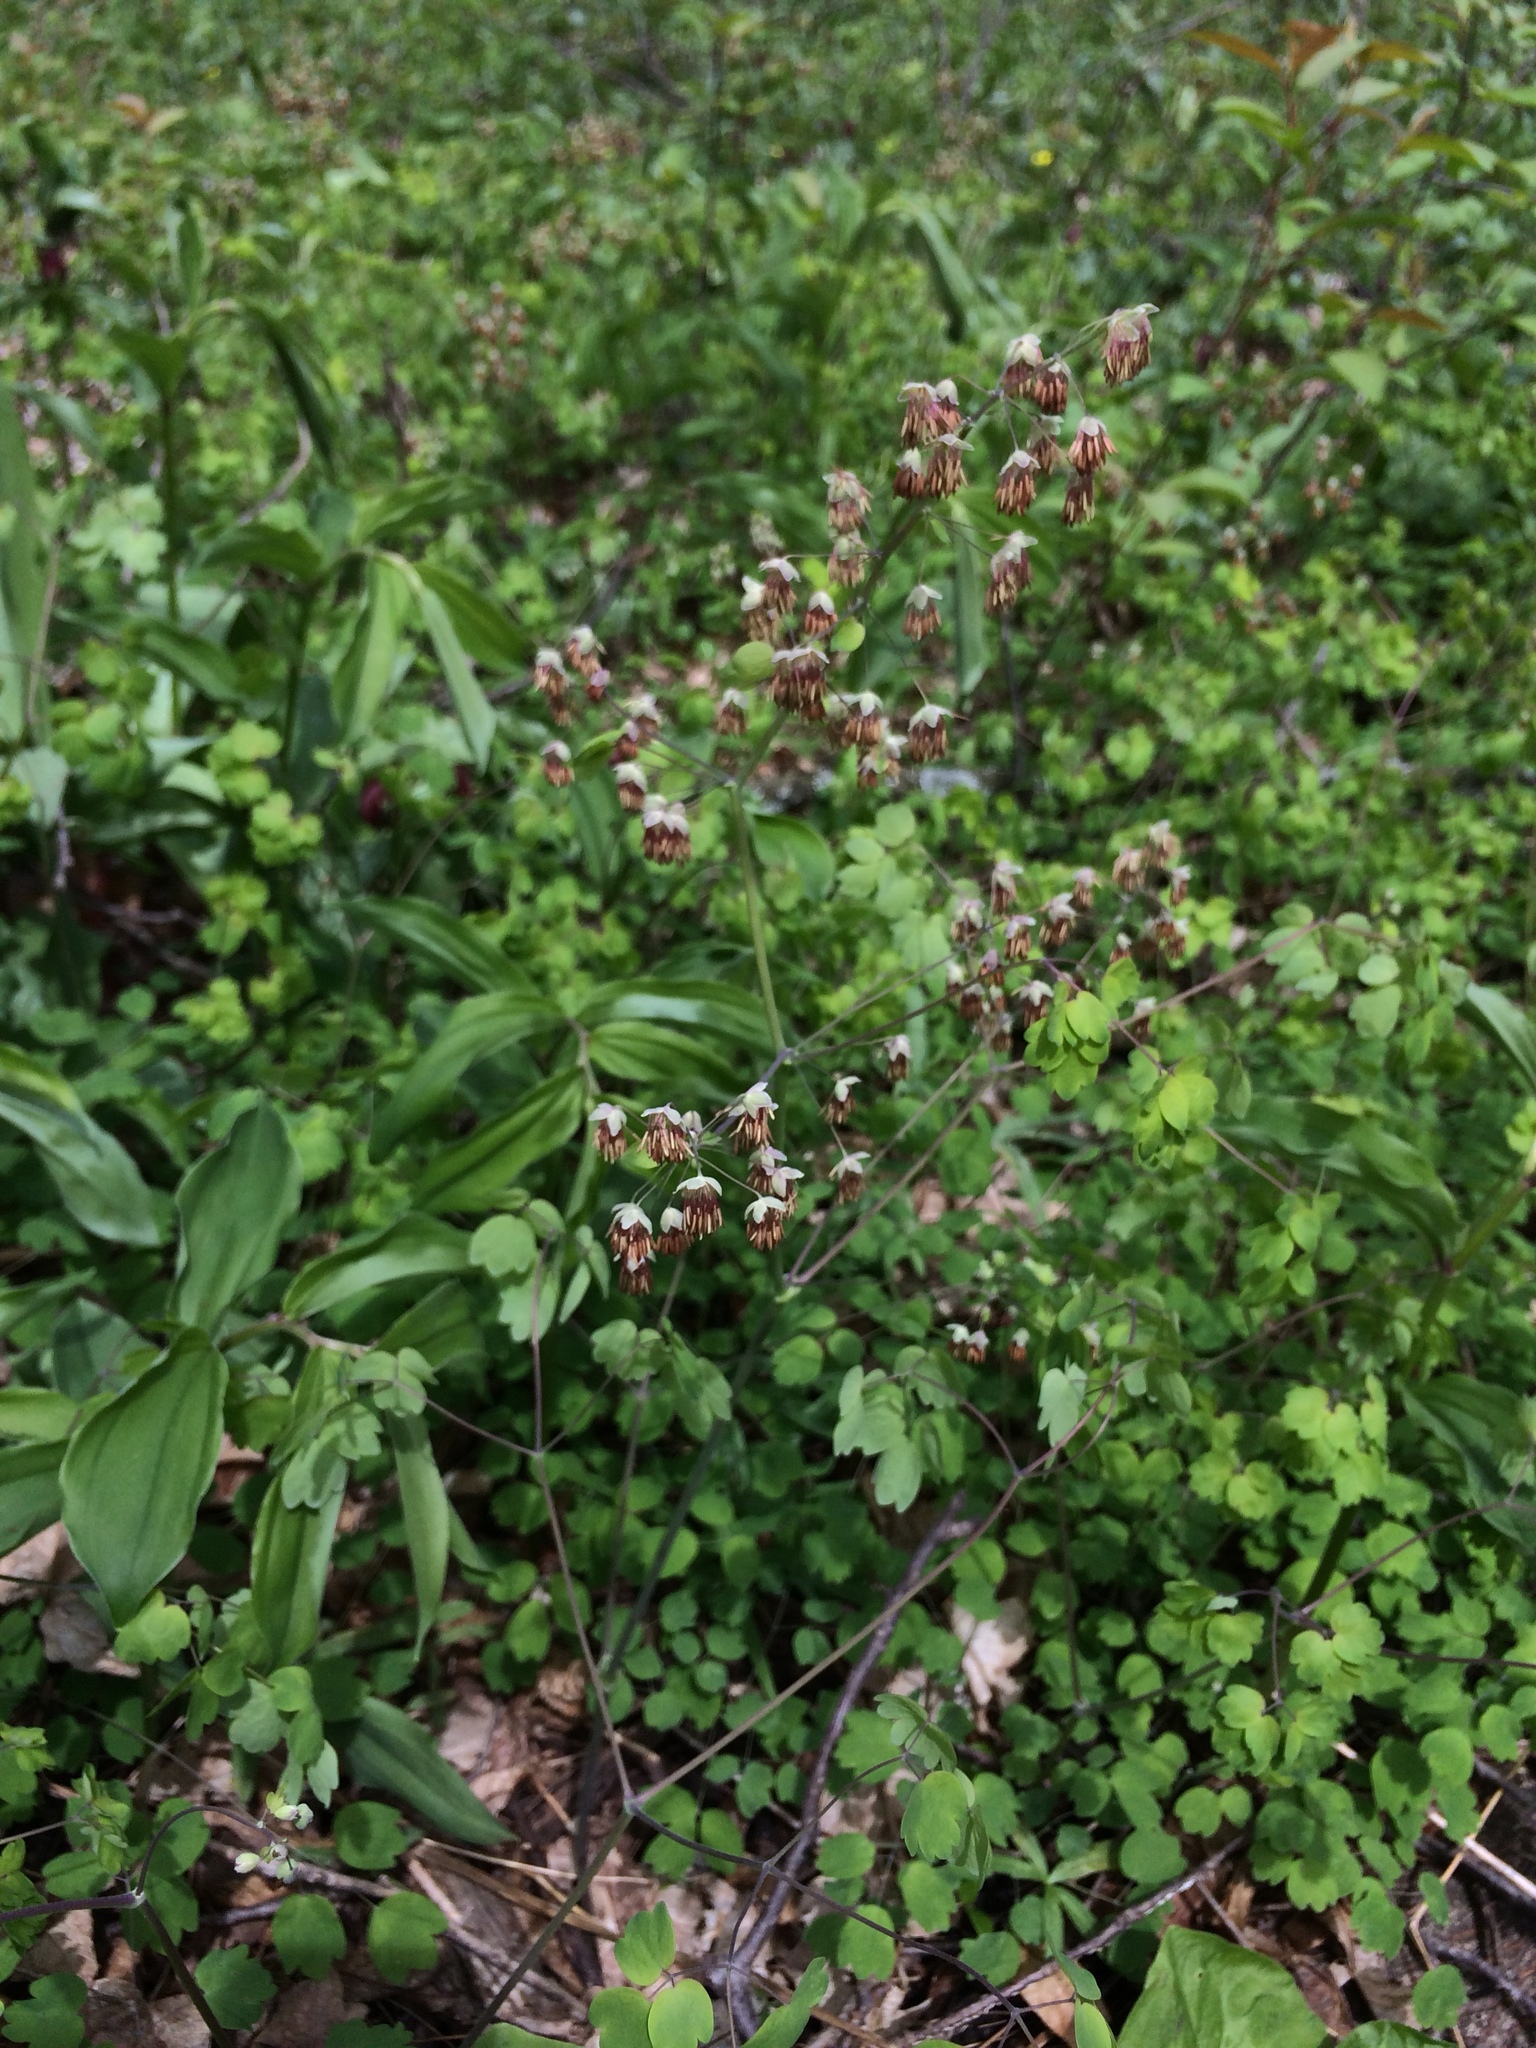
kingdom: Plantae
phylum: Tracheophyta
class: Magnoliopsida
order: Ranunculales
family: Ranunculaceae
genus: Thalictrum
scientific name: Thalictrum dioicum
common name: Early meadow-rue
